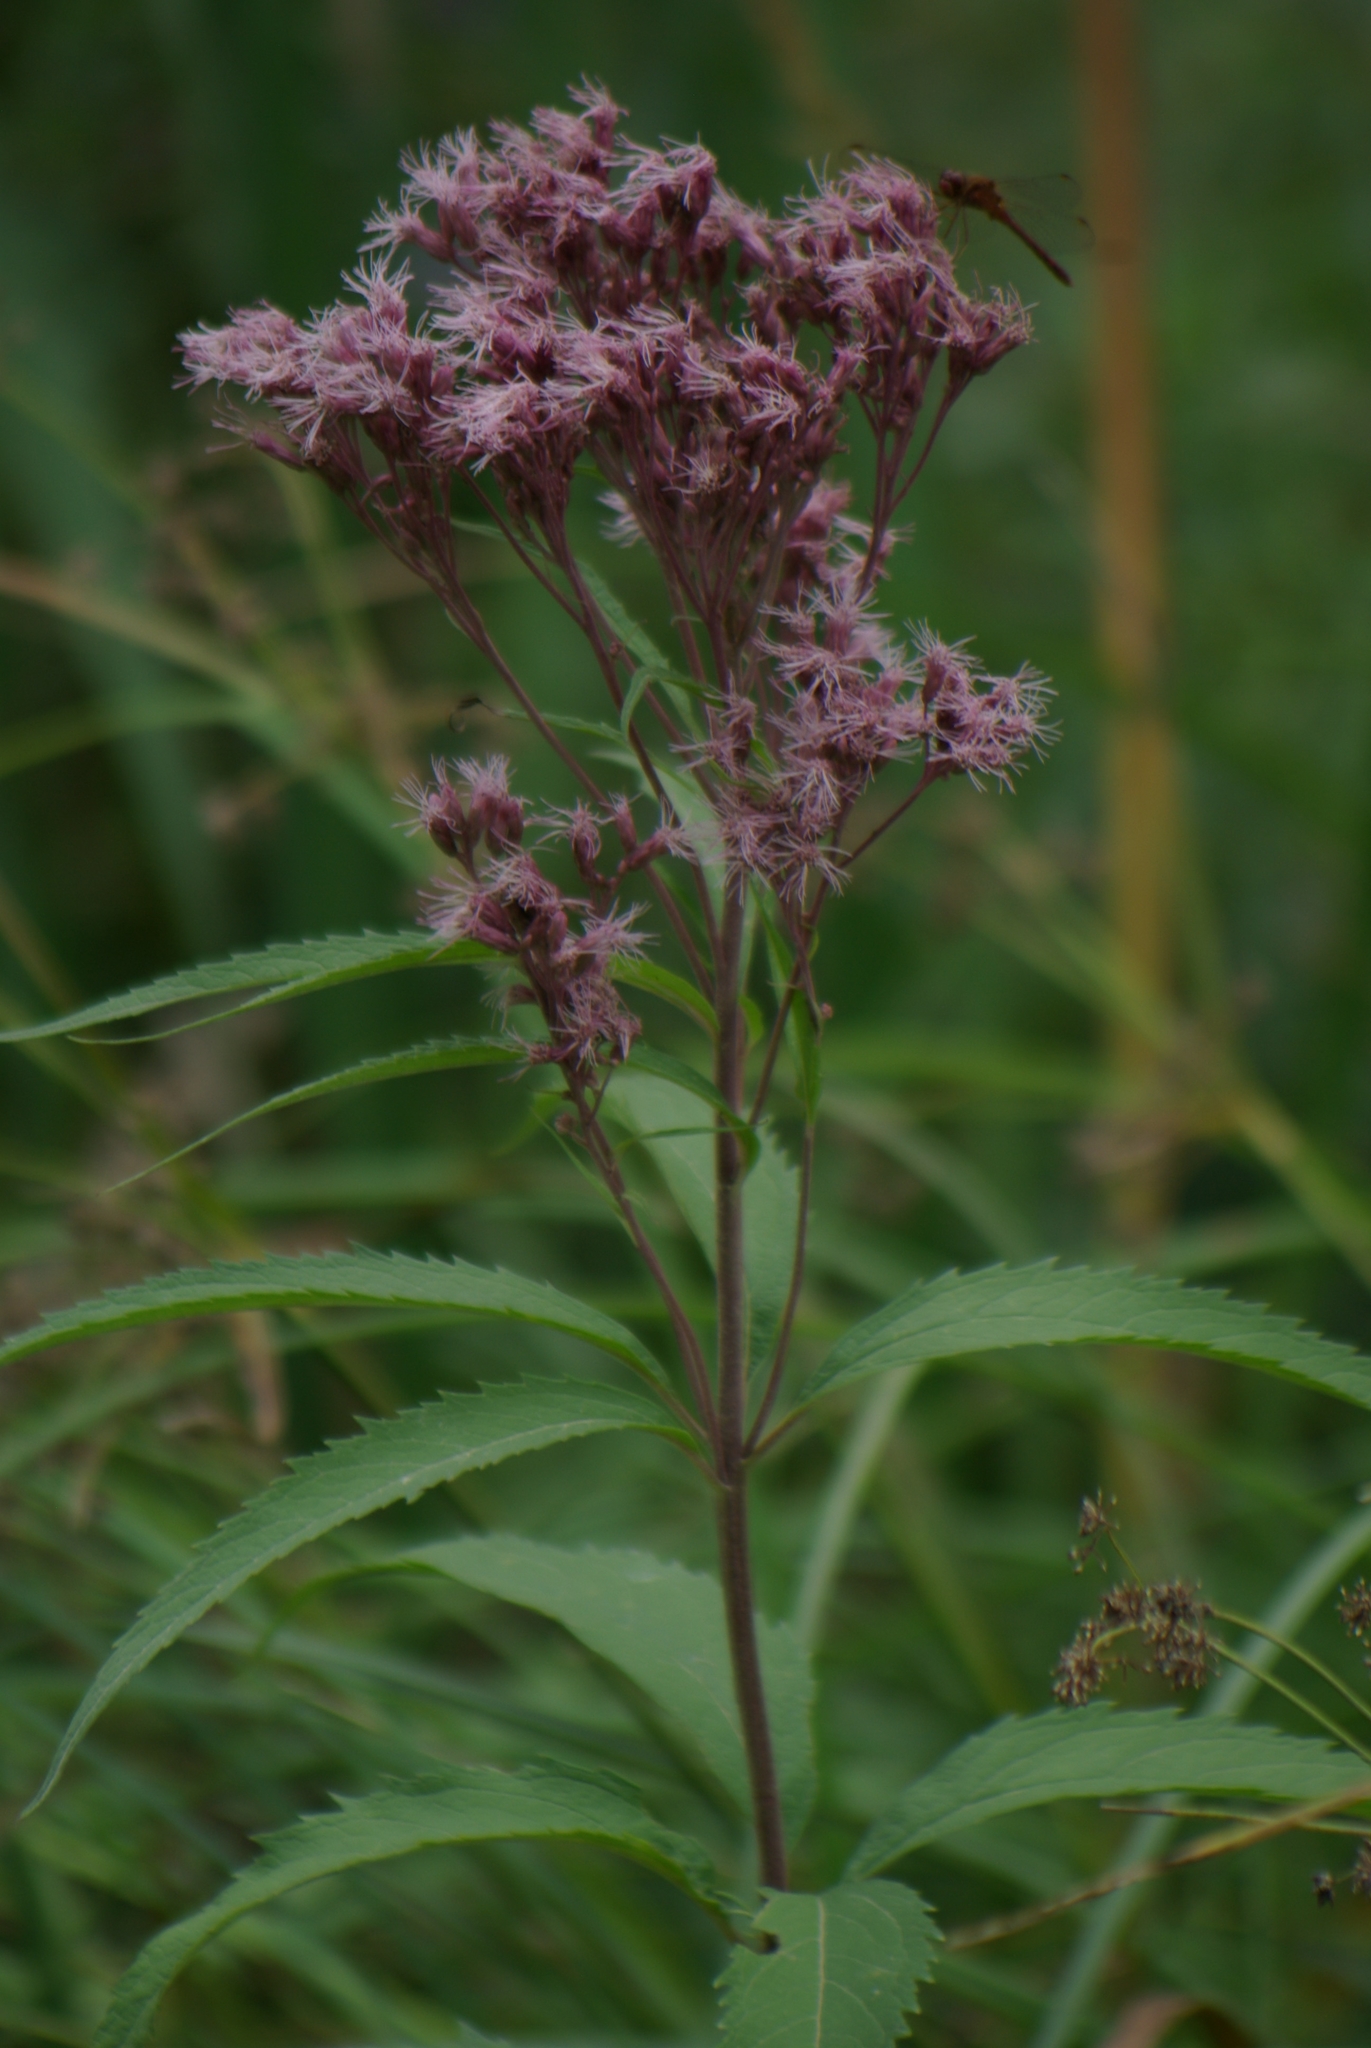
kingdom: Plantae
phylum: Tracheophyta
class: Magnoliopsida
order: Asterales
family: Asteraceae
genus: Eutrochium
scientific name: Eutrochium maculatum
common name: Spotted joe pye weed
